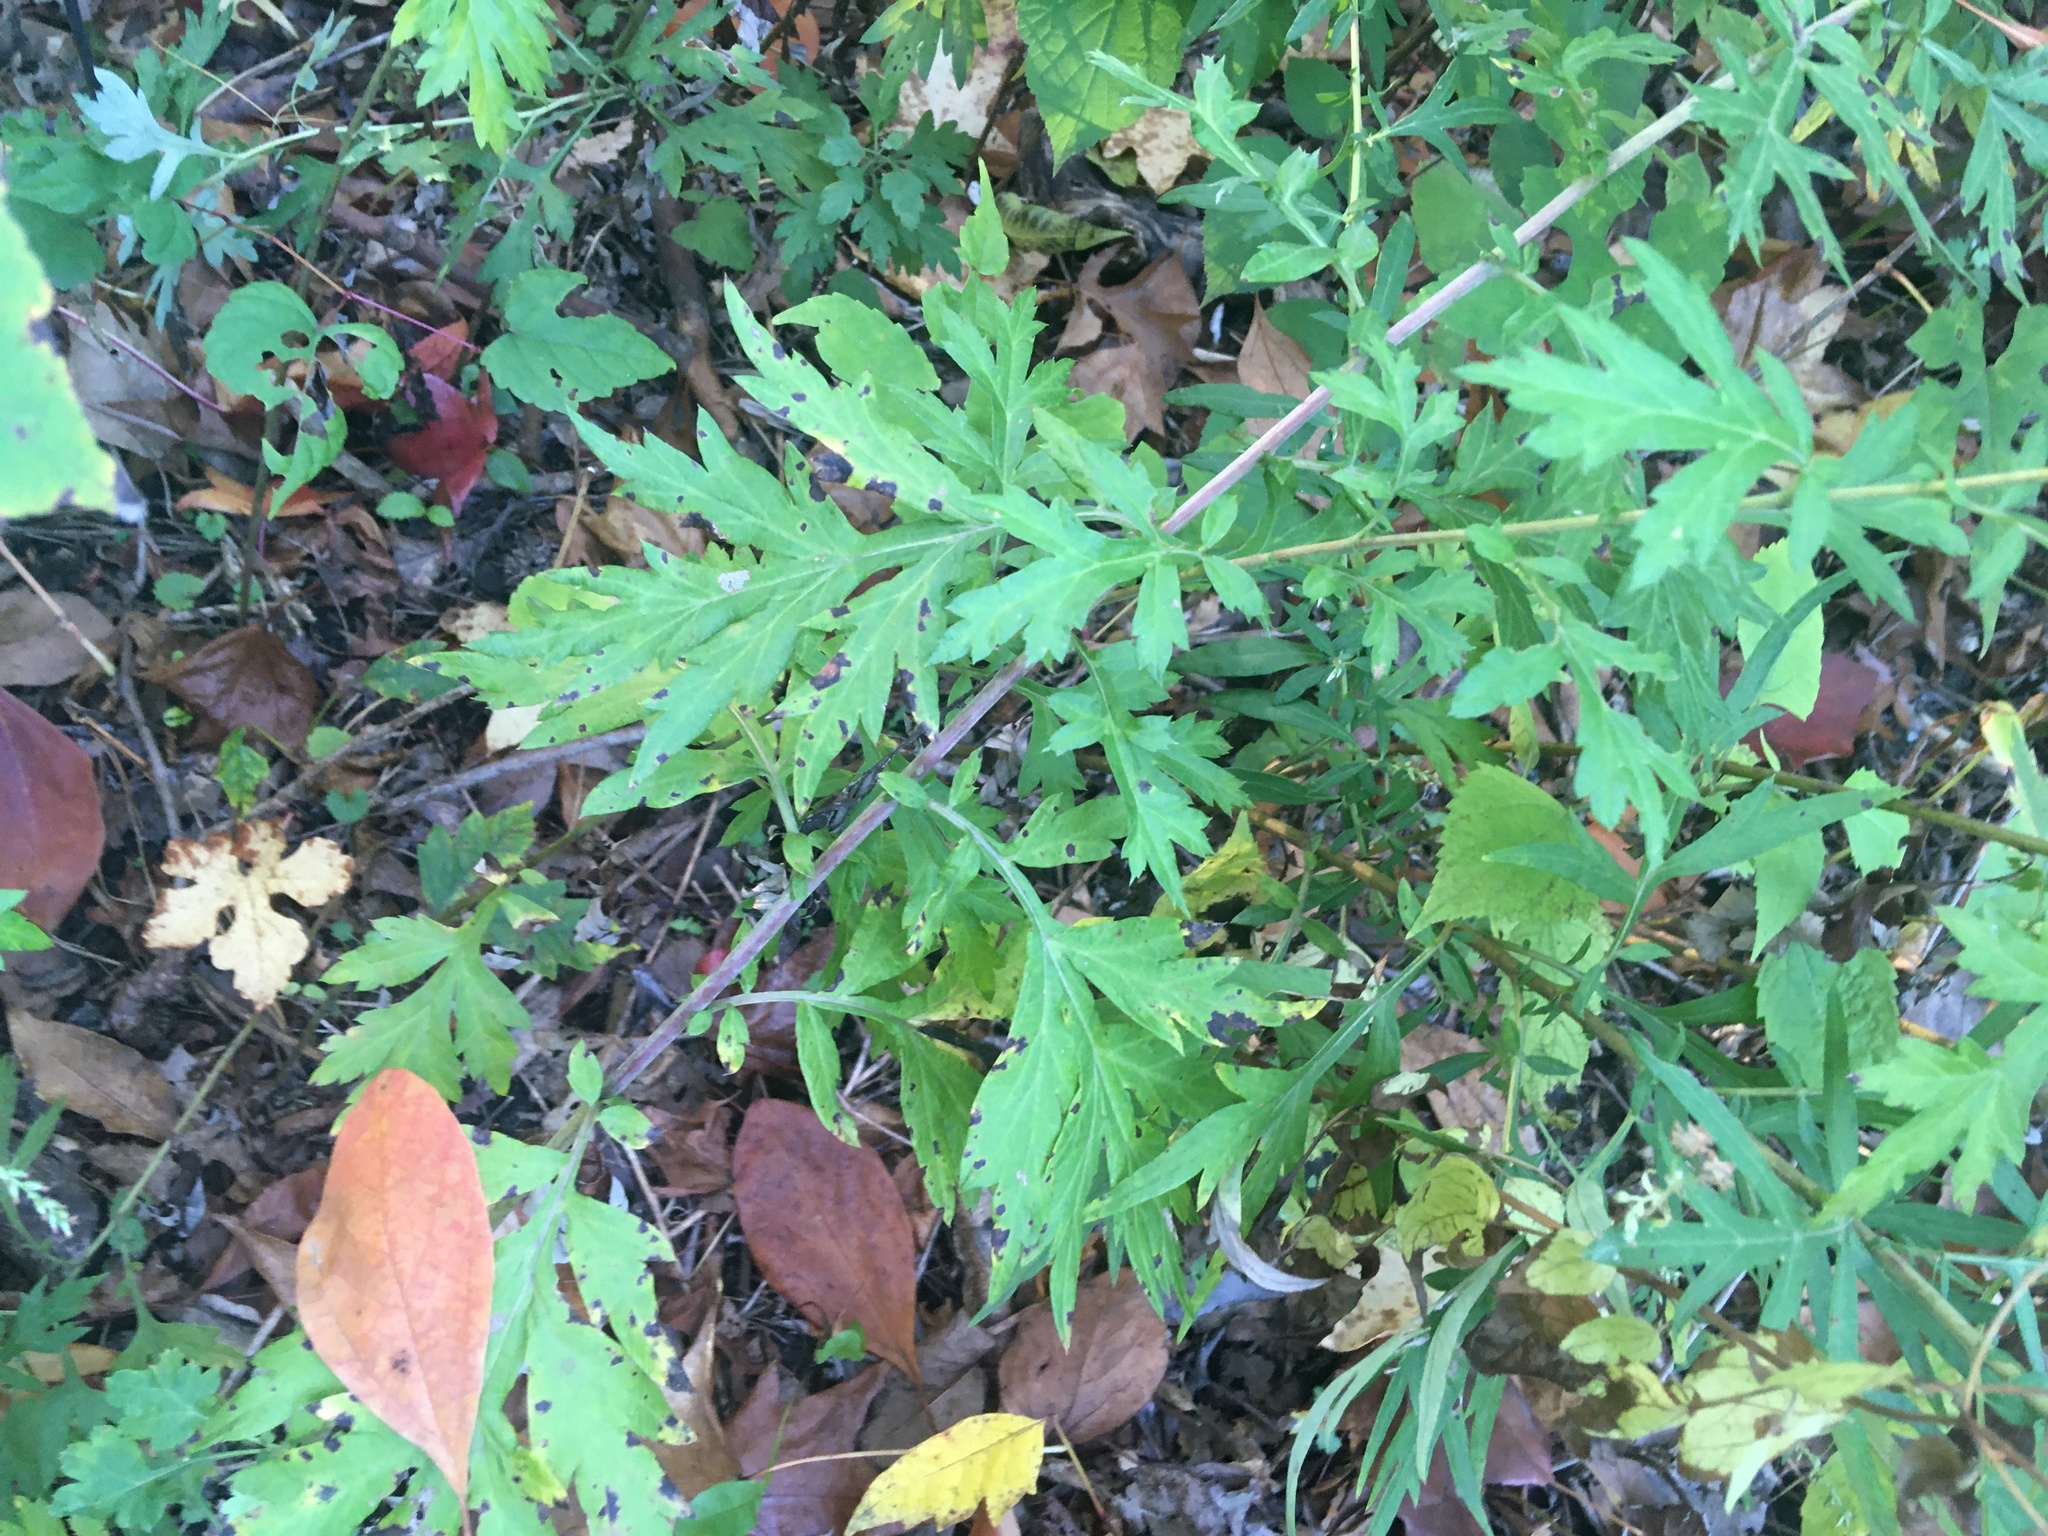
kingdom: Plantae
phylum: Tracheophyta
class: Magnoliopsida
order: Asterales
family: Asteraceae
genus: Artemisia
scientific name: Artemisia vulgaris
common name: Mugwort
